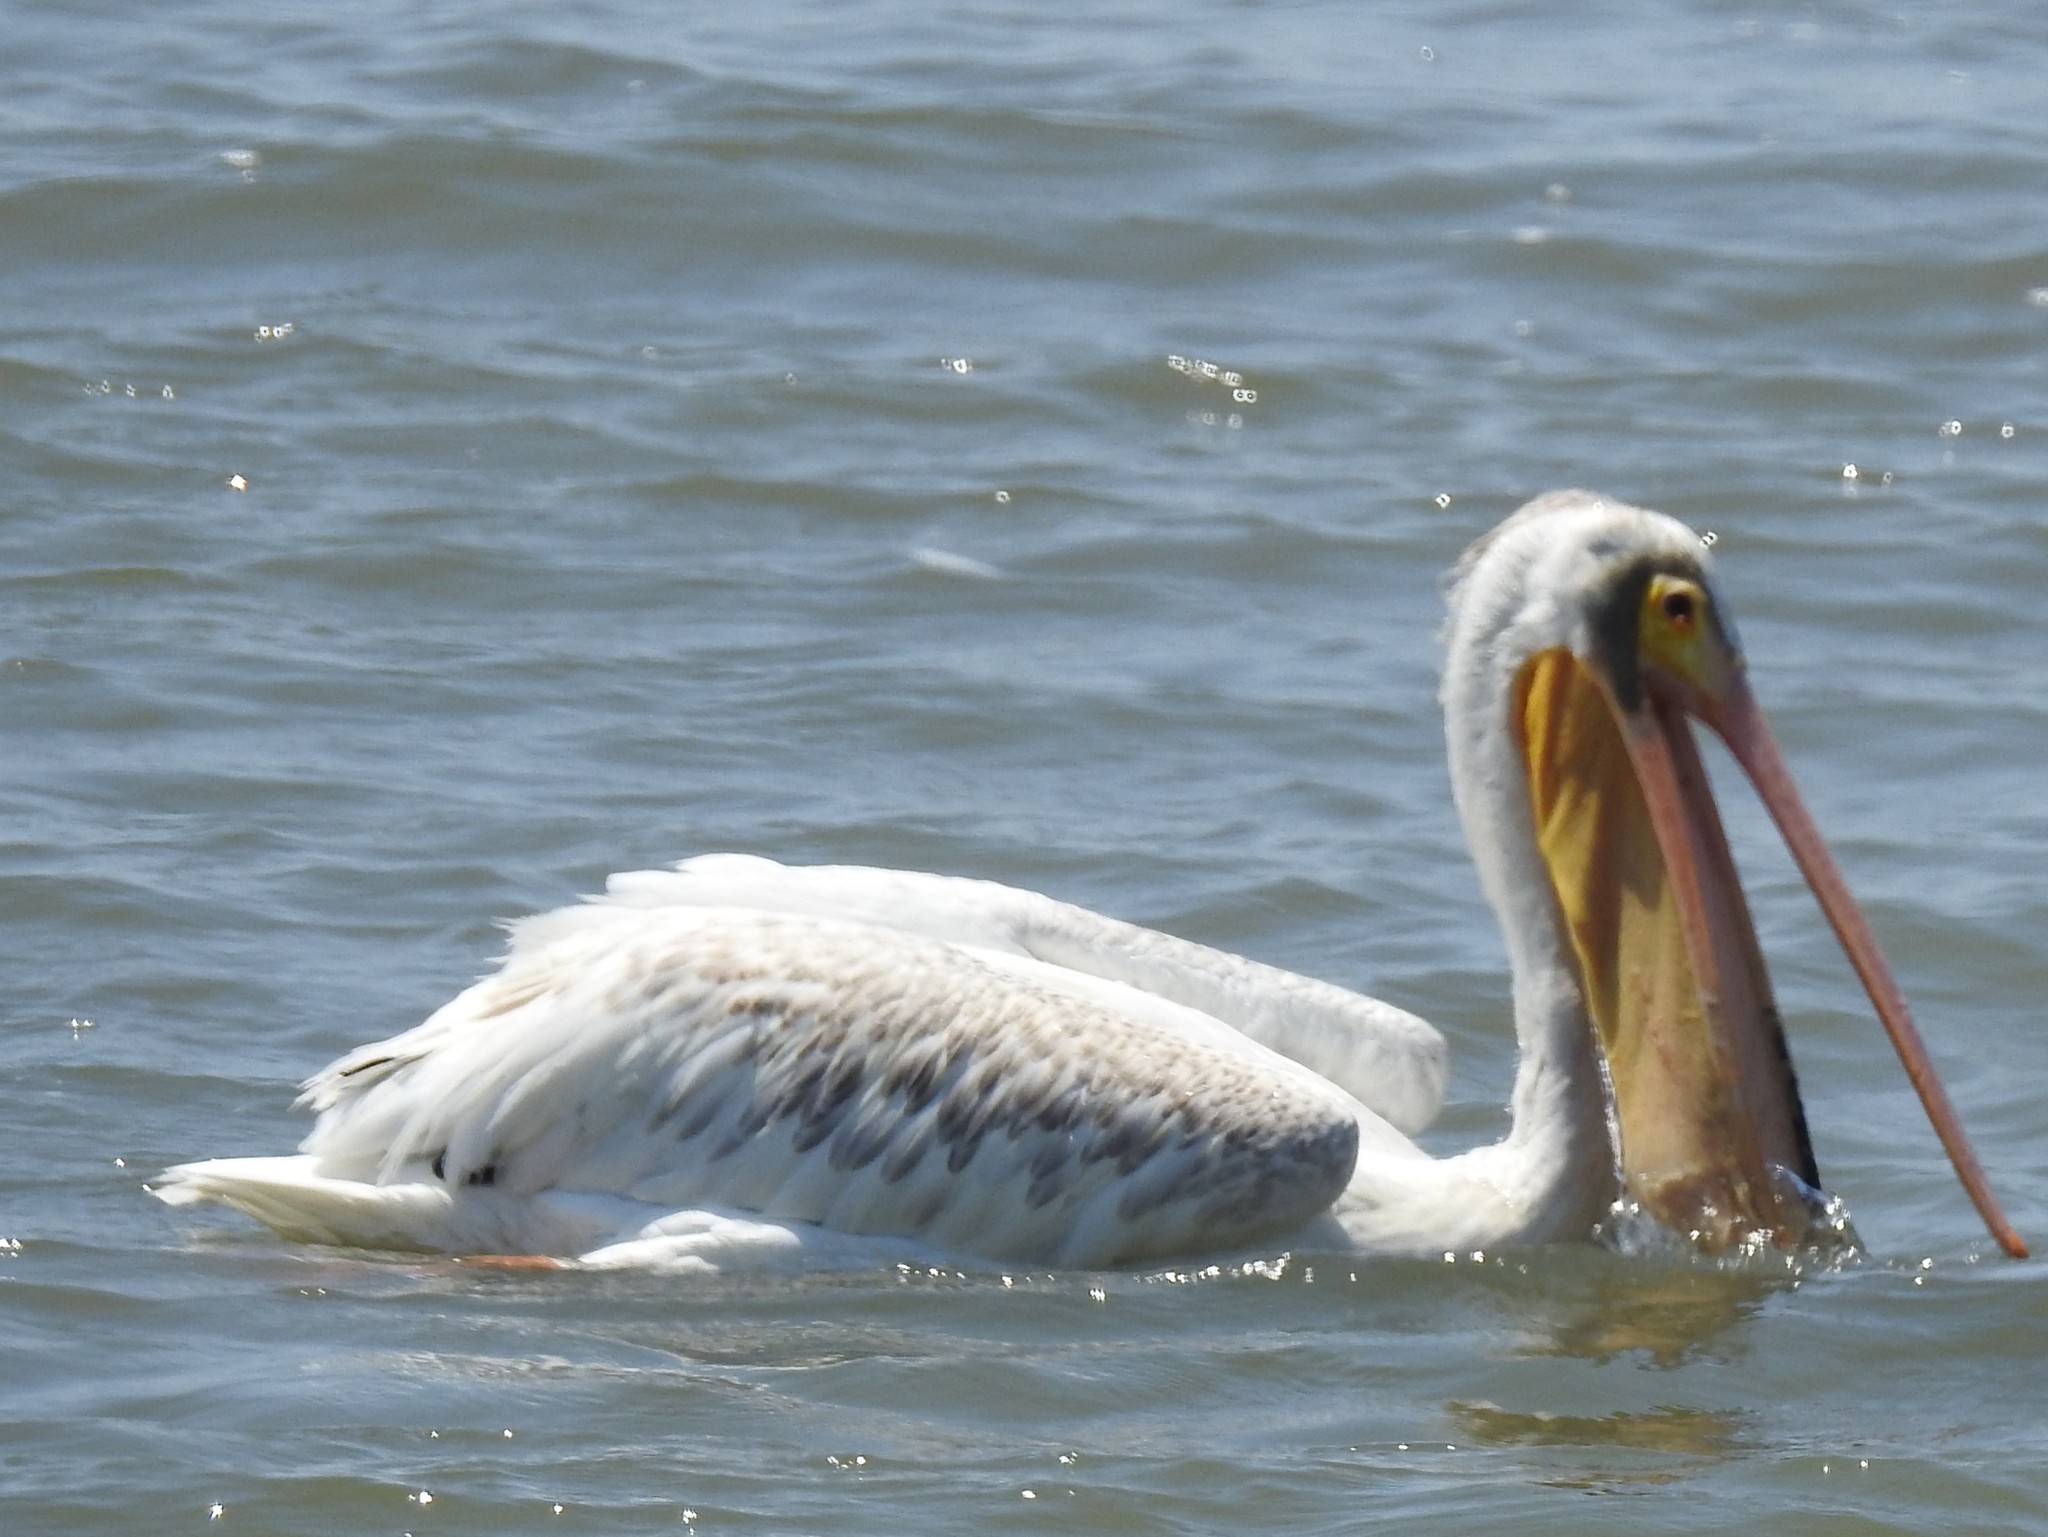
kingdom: Animalia
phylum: Chordata
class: Aves
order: Pelecaniformes
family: Pelecanidae
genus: Pelecanus
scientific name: Pelecanus erythrorhynchos
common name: American white pelican
